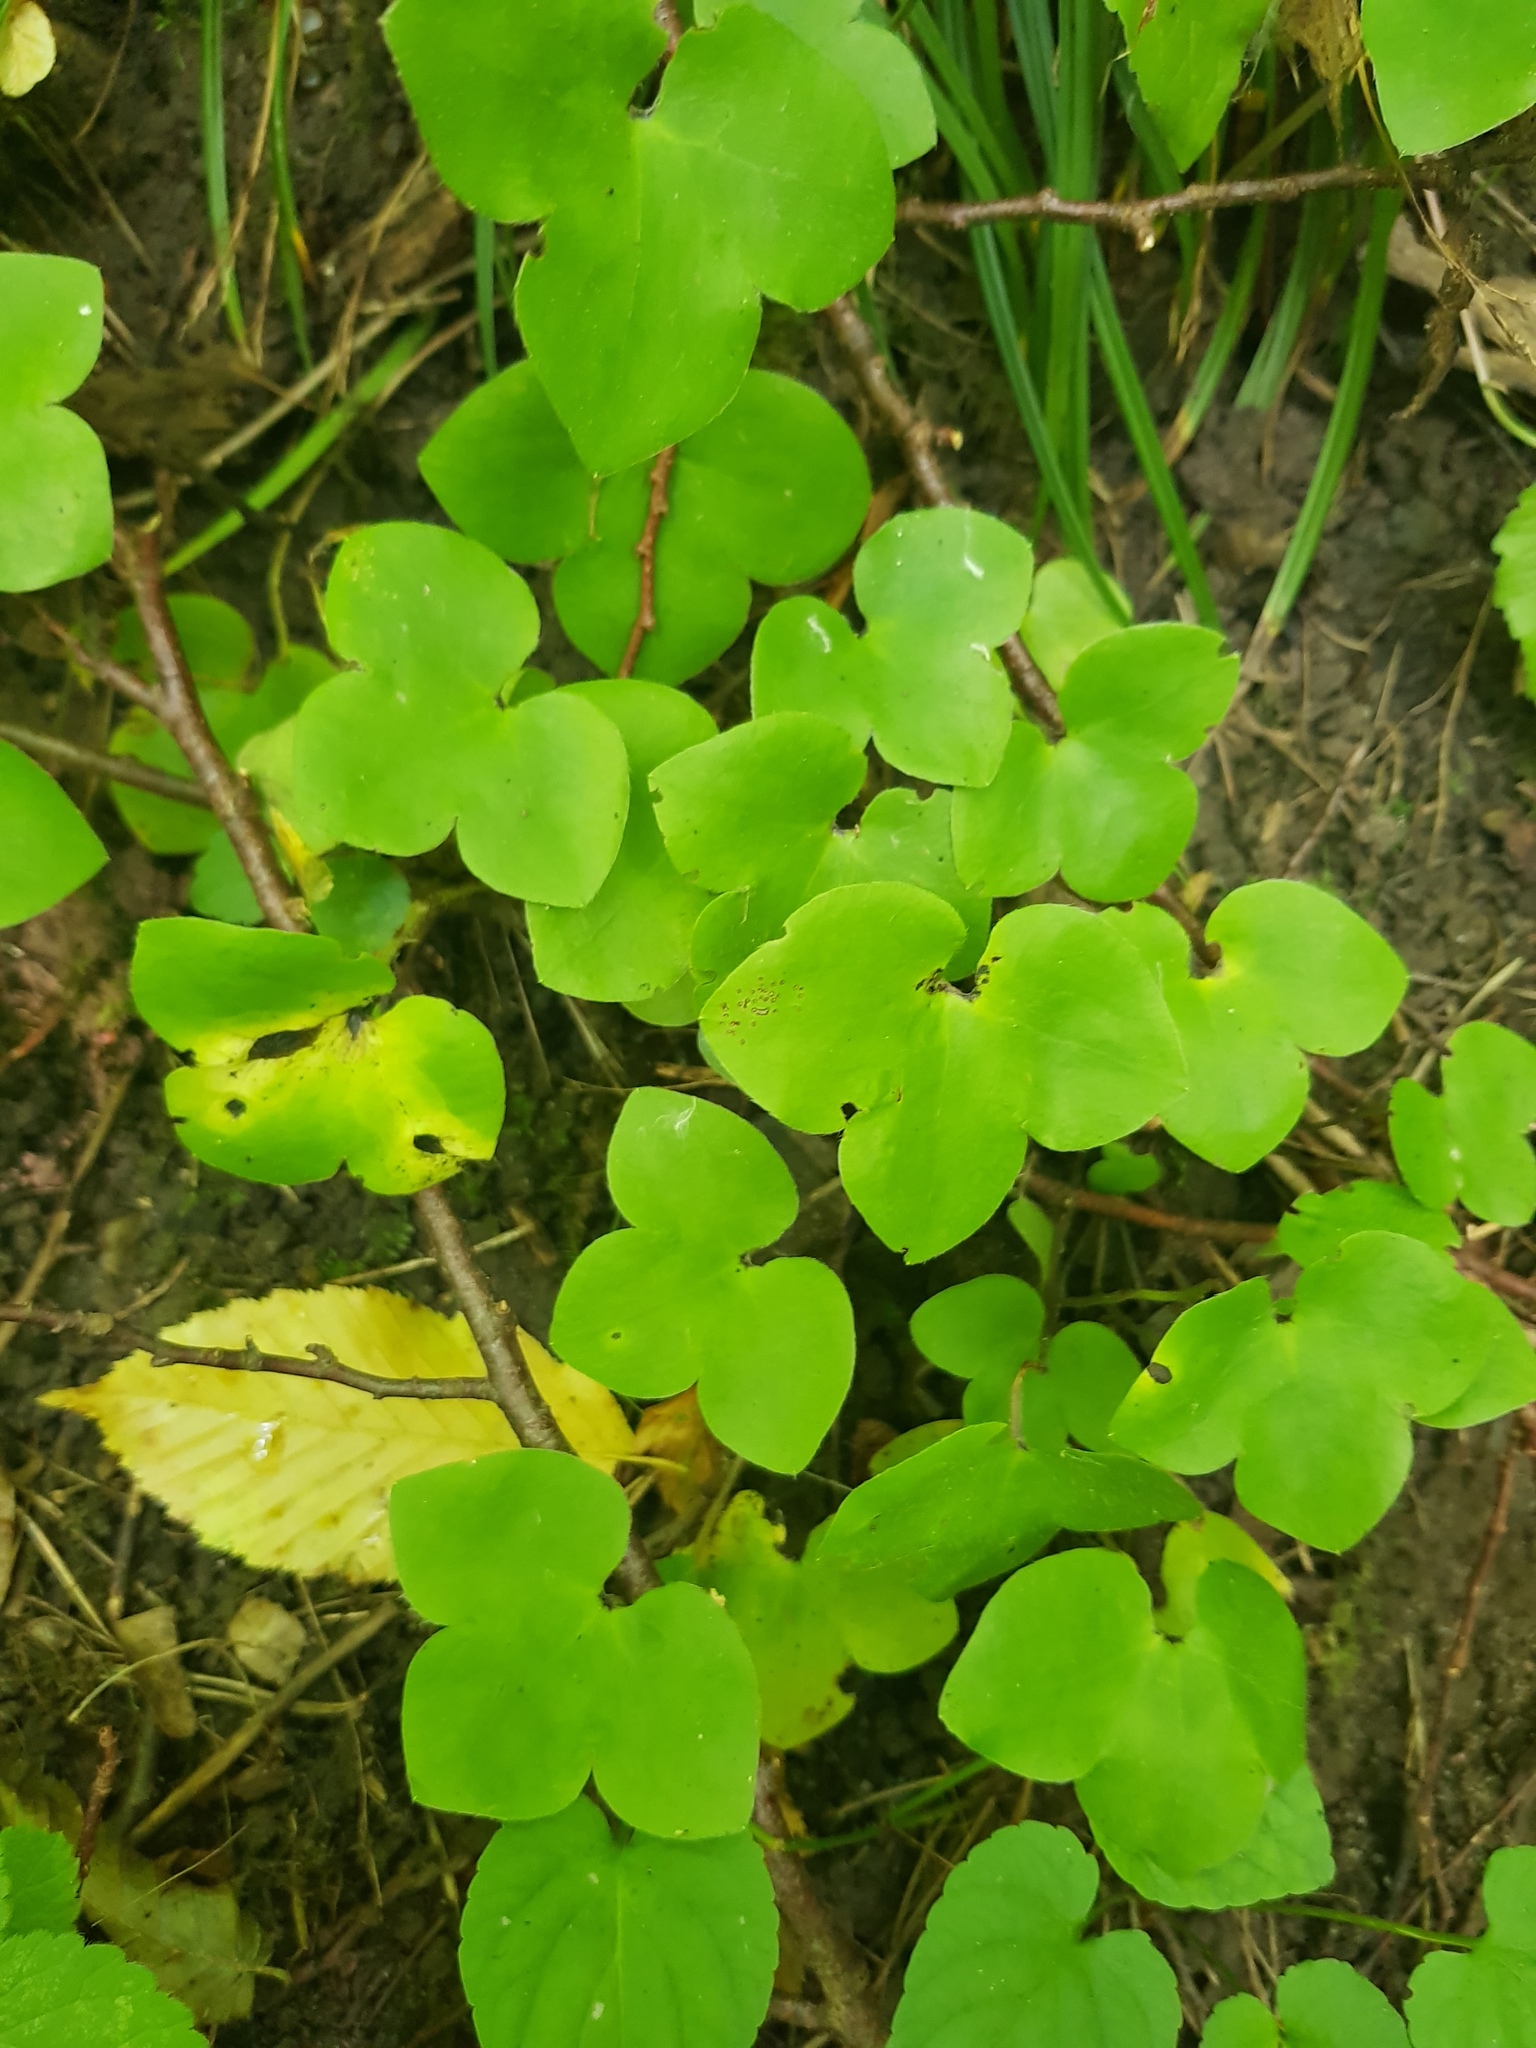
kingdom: Plantae
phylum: Tracheophyta
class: Magnoliopsida
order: Ranunculales
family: Ranunculaceae
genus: Hepatica
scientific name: Hepatica nobilis
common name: Liverleaf
